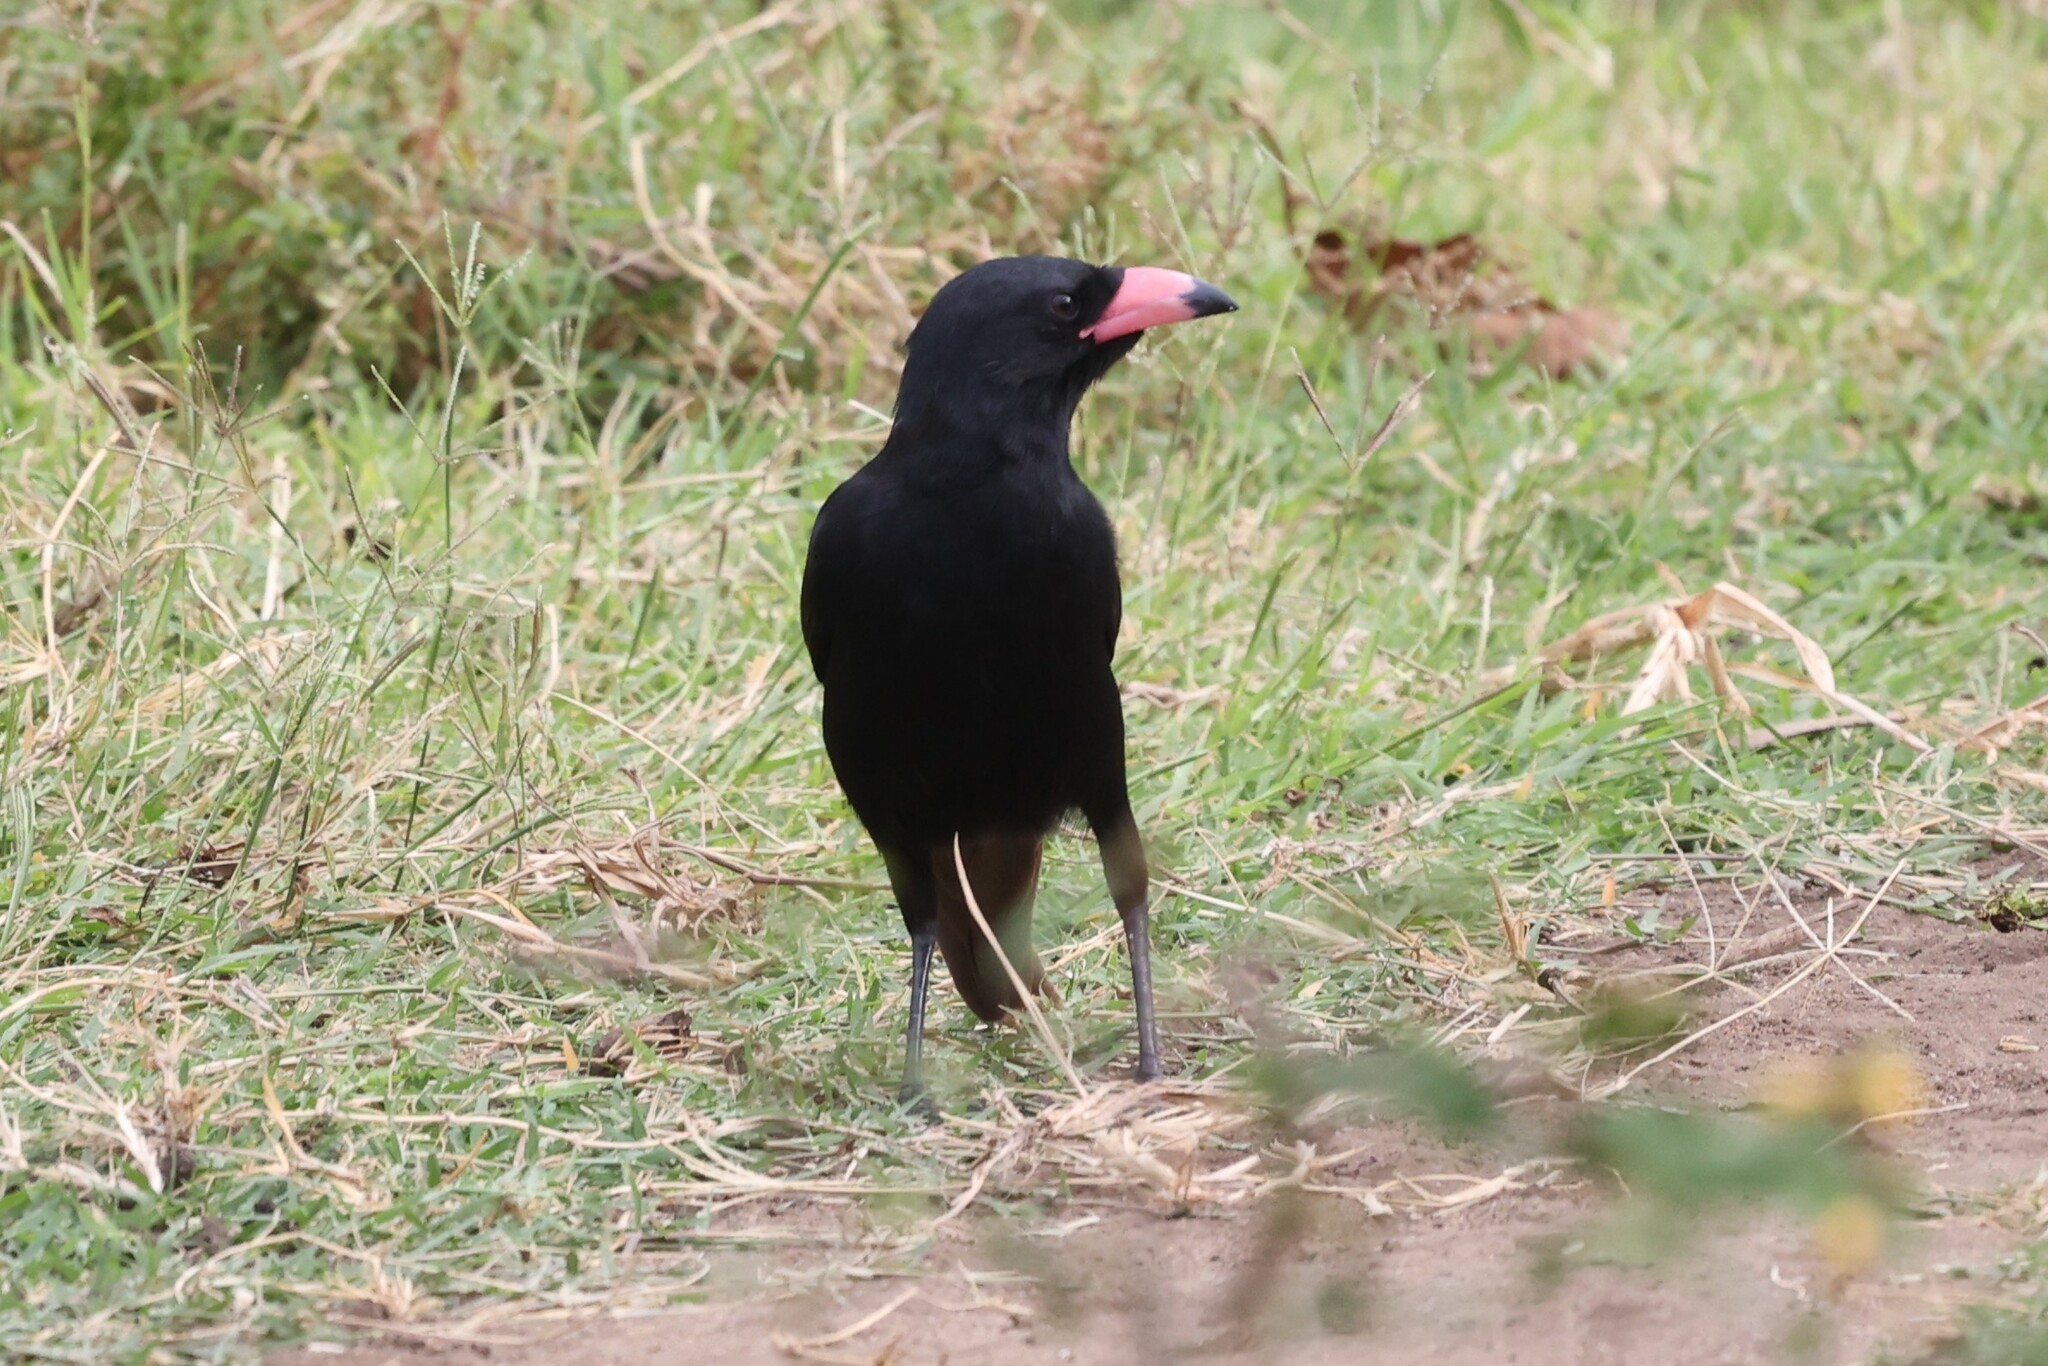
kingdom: Animalia
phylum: Chordata
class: Aves
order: Passeriformes
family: Corvidae
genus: Ptilostomus
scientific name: Ptilostomus afer
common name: Piapiac
